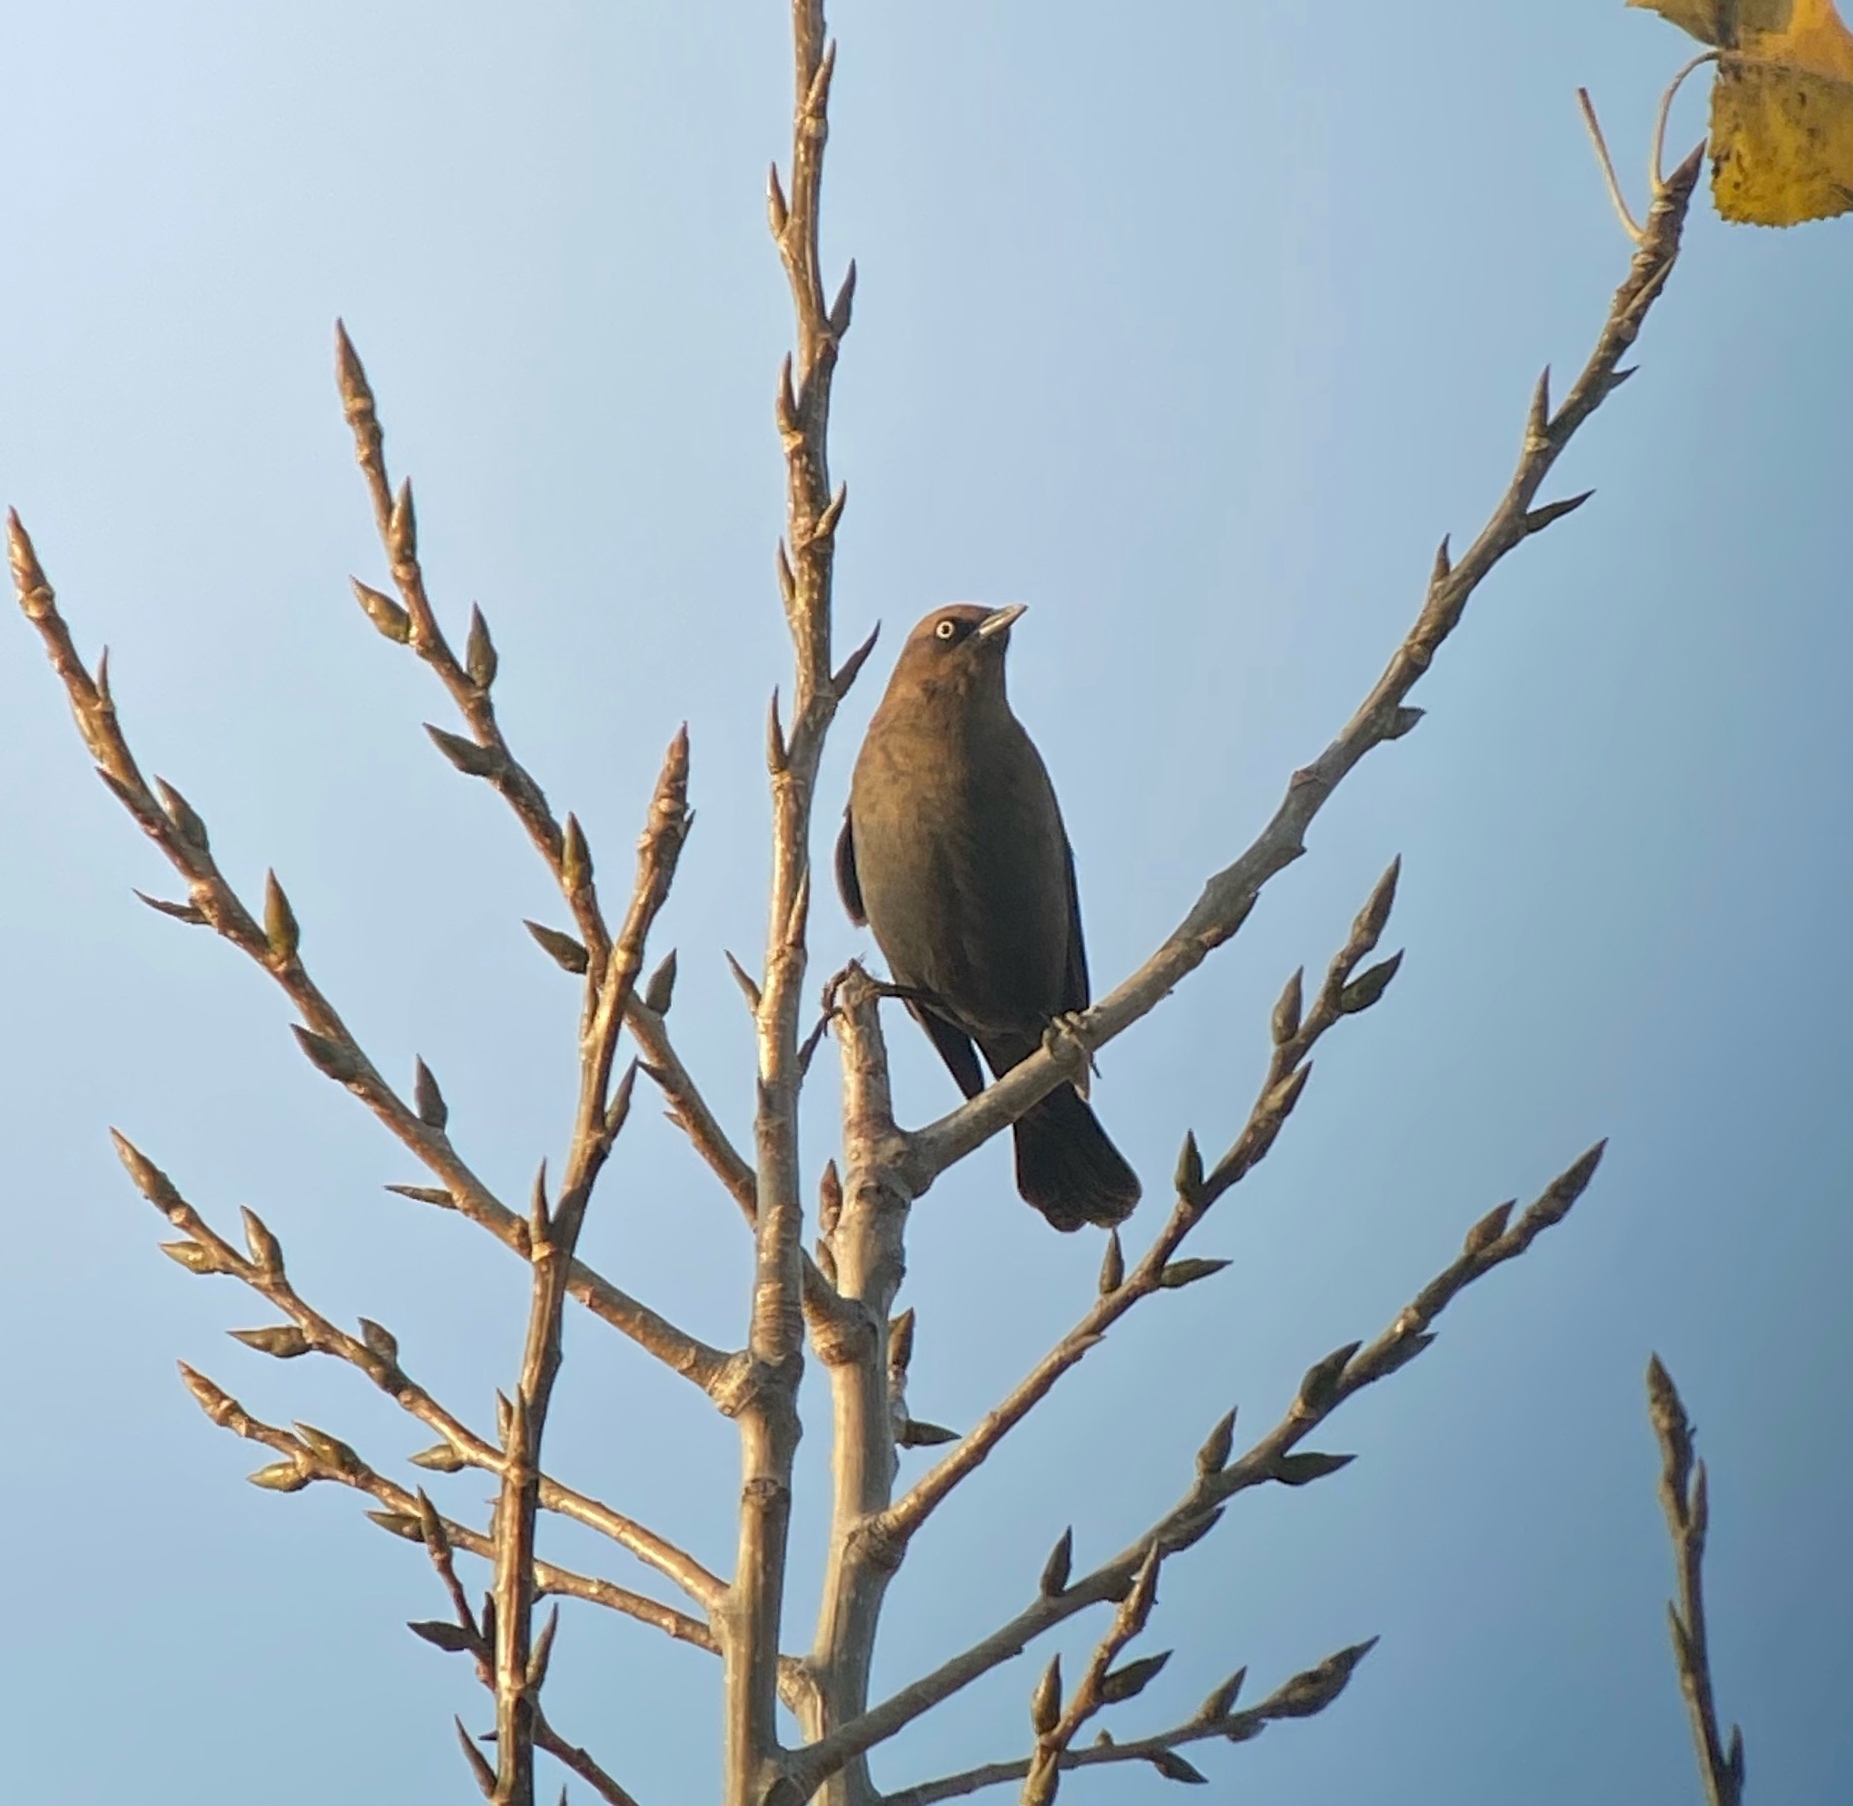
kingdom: Animalia
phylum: Chordata
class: Aves
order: Passeriformes
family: Icteridae
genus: Euphagus
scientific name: Euphagus carolinus
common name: Rusty blackbird
